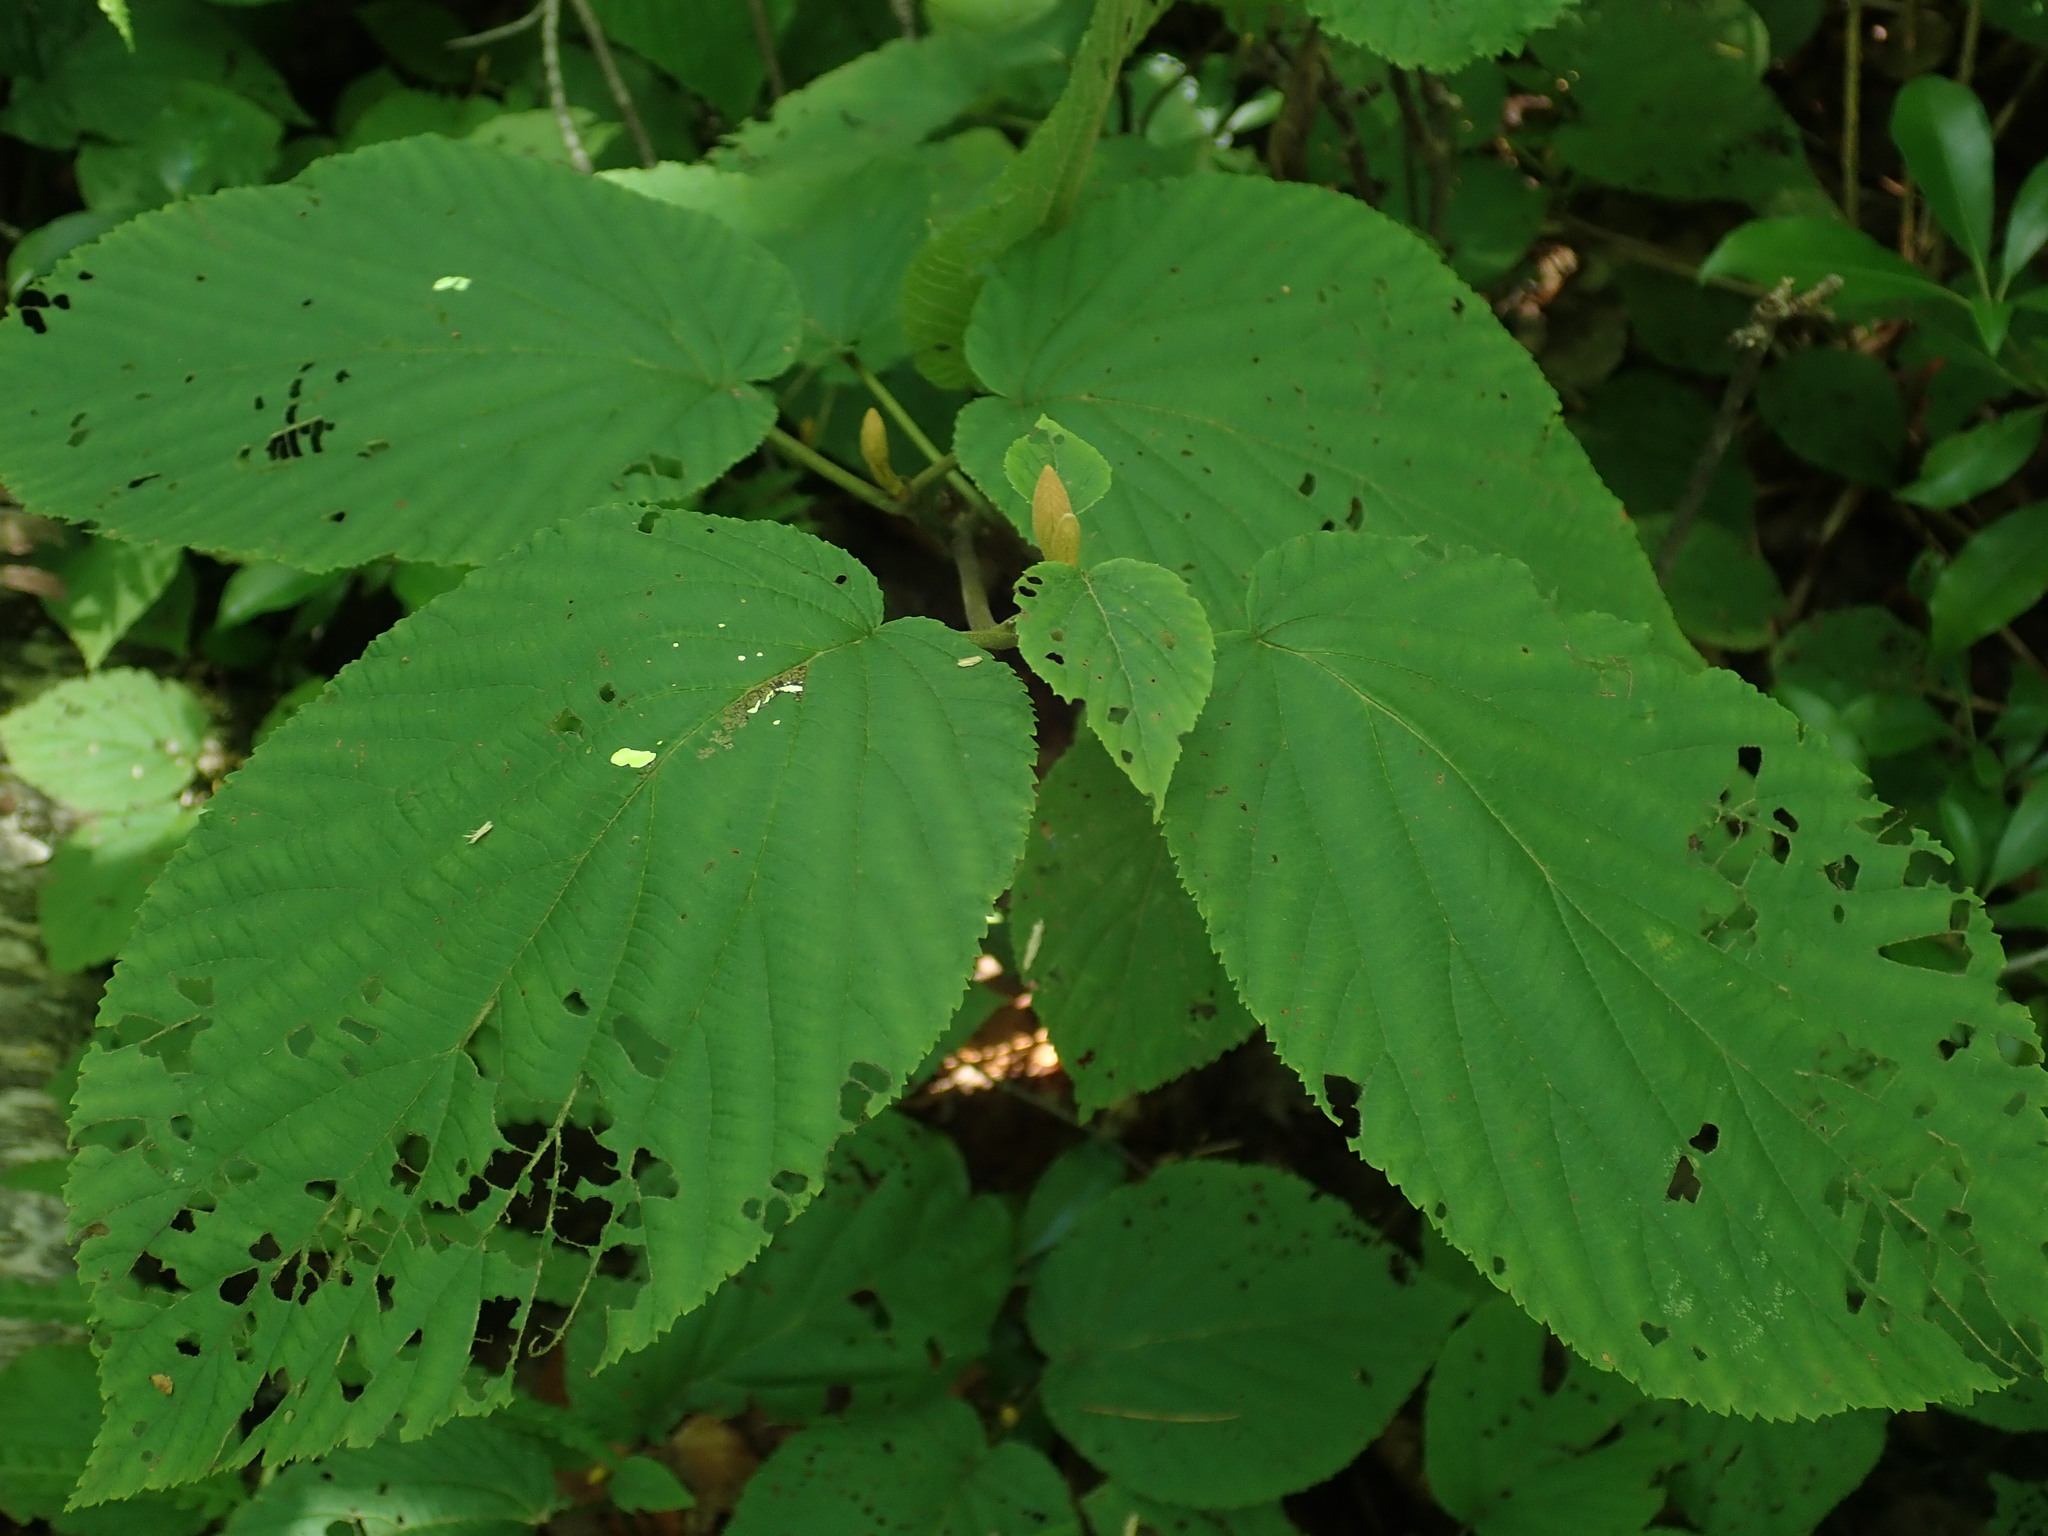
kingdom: Plantae
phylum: Tracheophyta
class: Magnoliopsida
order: Dipsacales
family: Viburnaceae
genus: Viburnum
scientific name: Viburnum lantanoides
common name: Hobblebush
